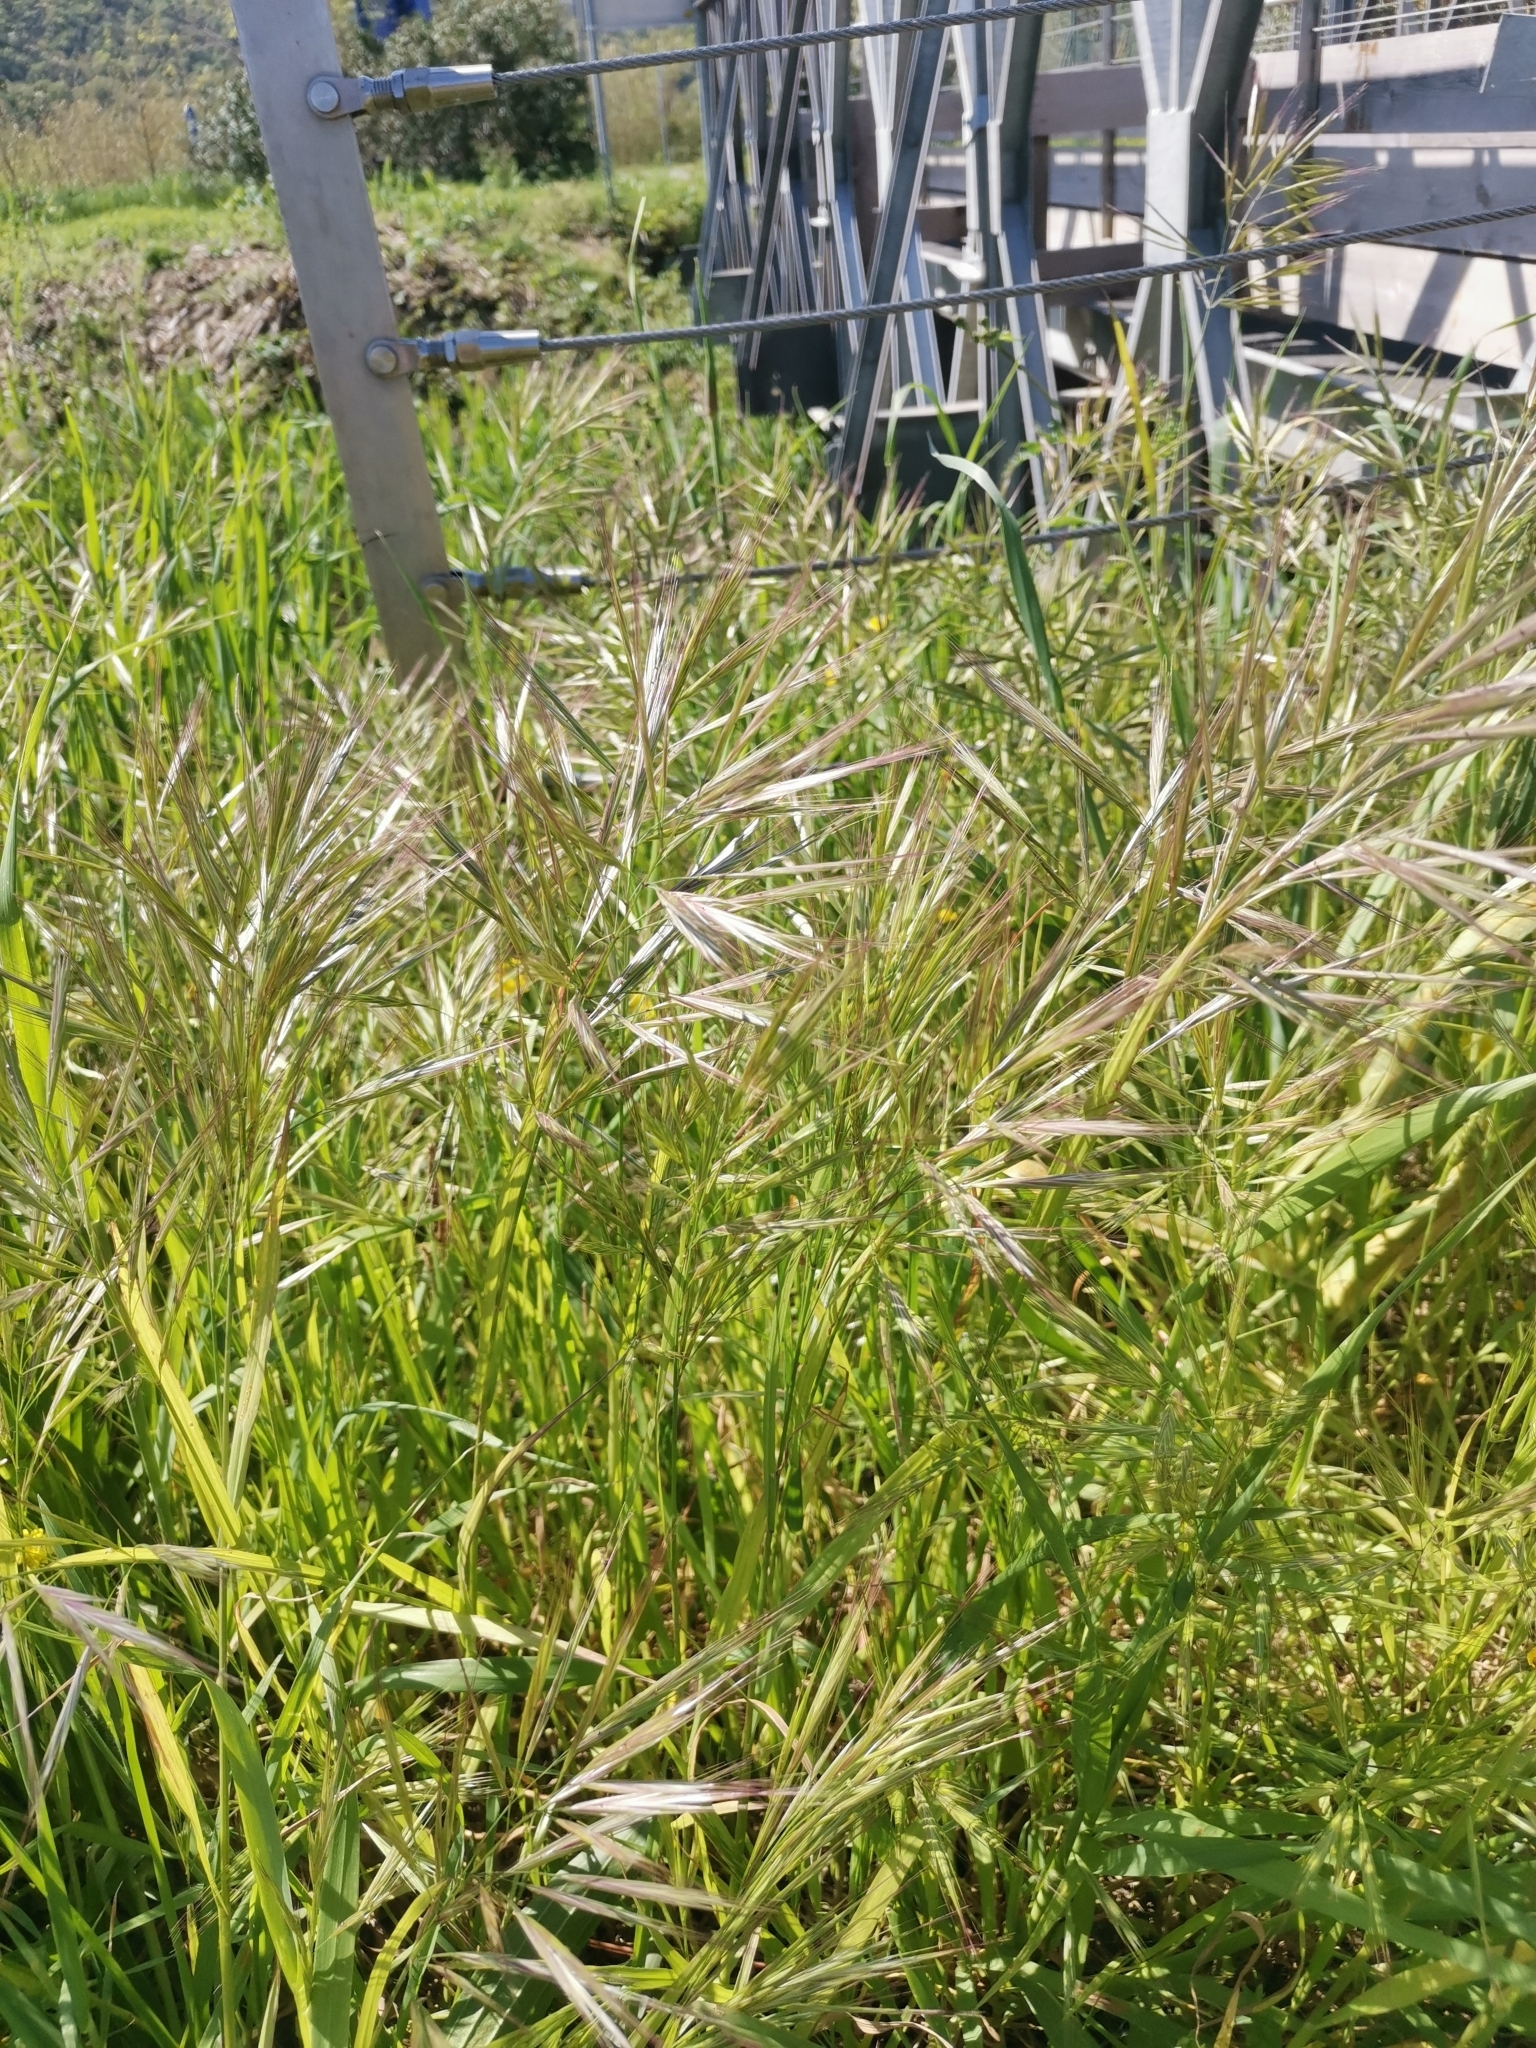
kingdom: Plantae
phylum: Tracheophyta
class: Liliopsida
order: Poales
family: Poaceae
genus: Bromus
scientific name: Bromus madritensis
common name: Compact brome
